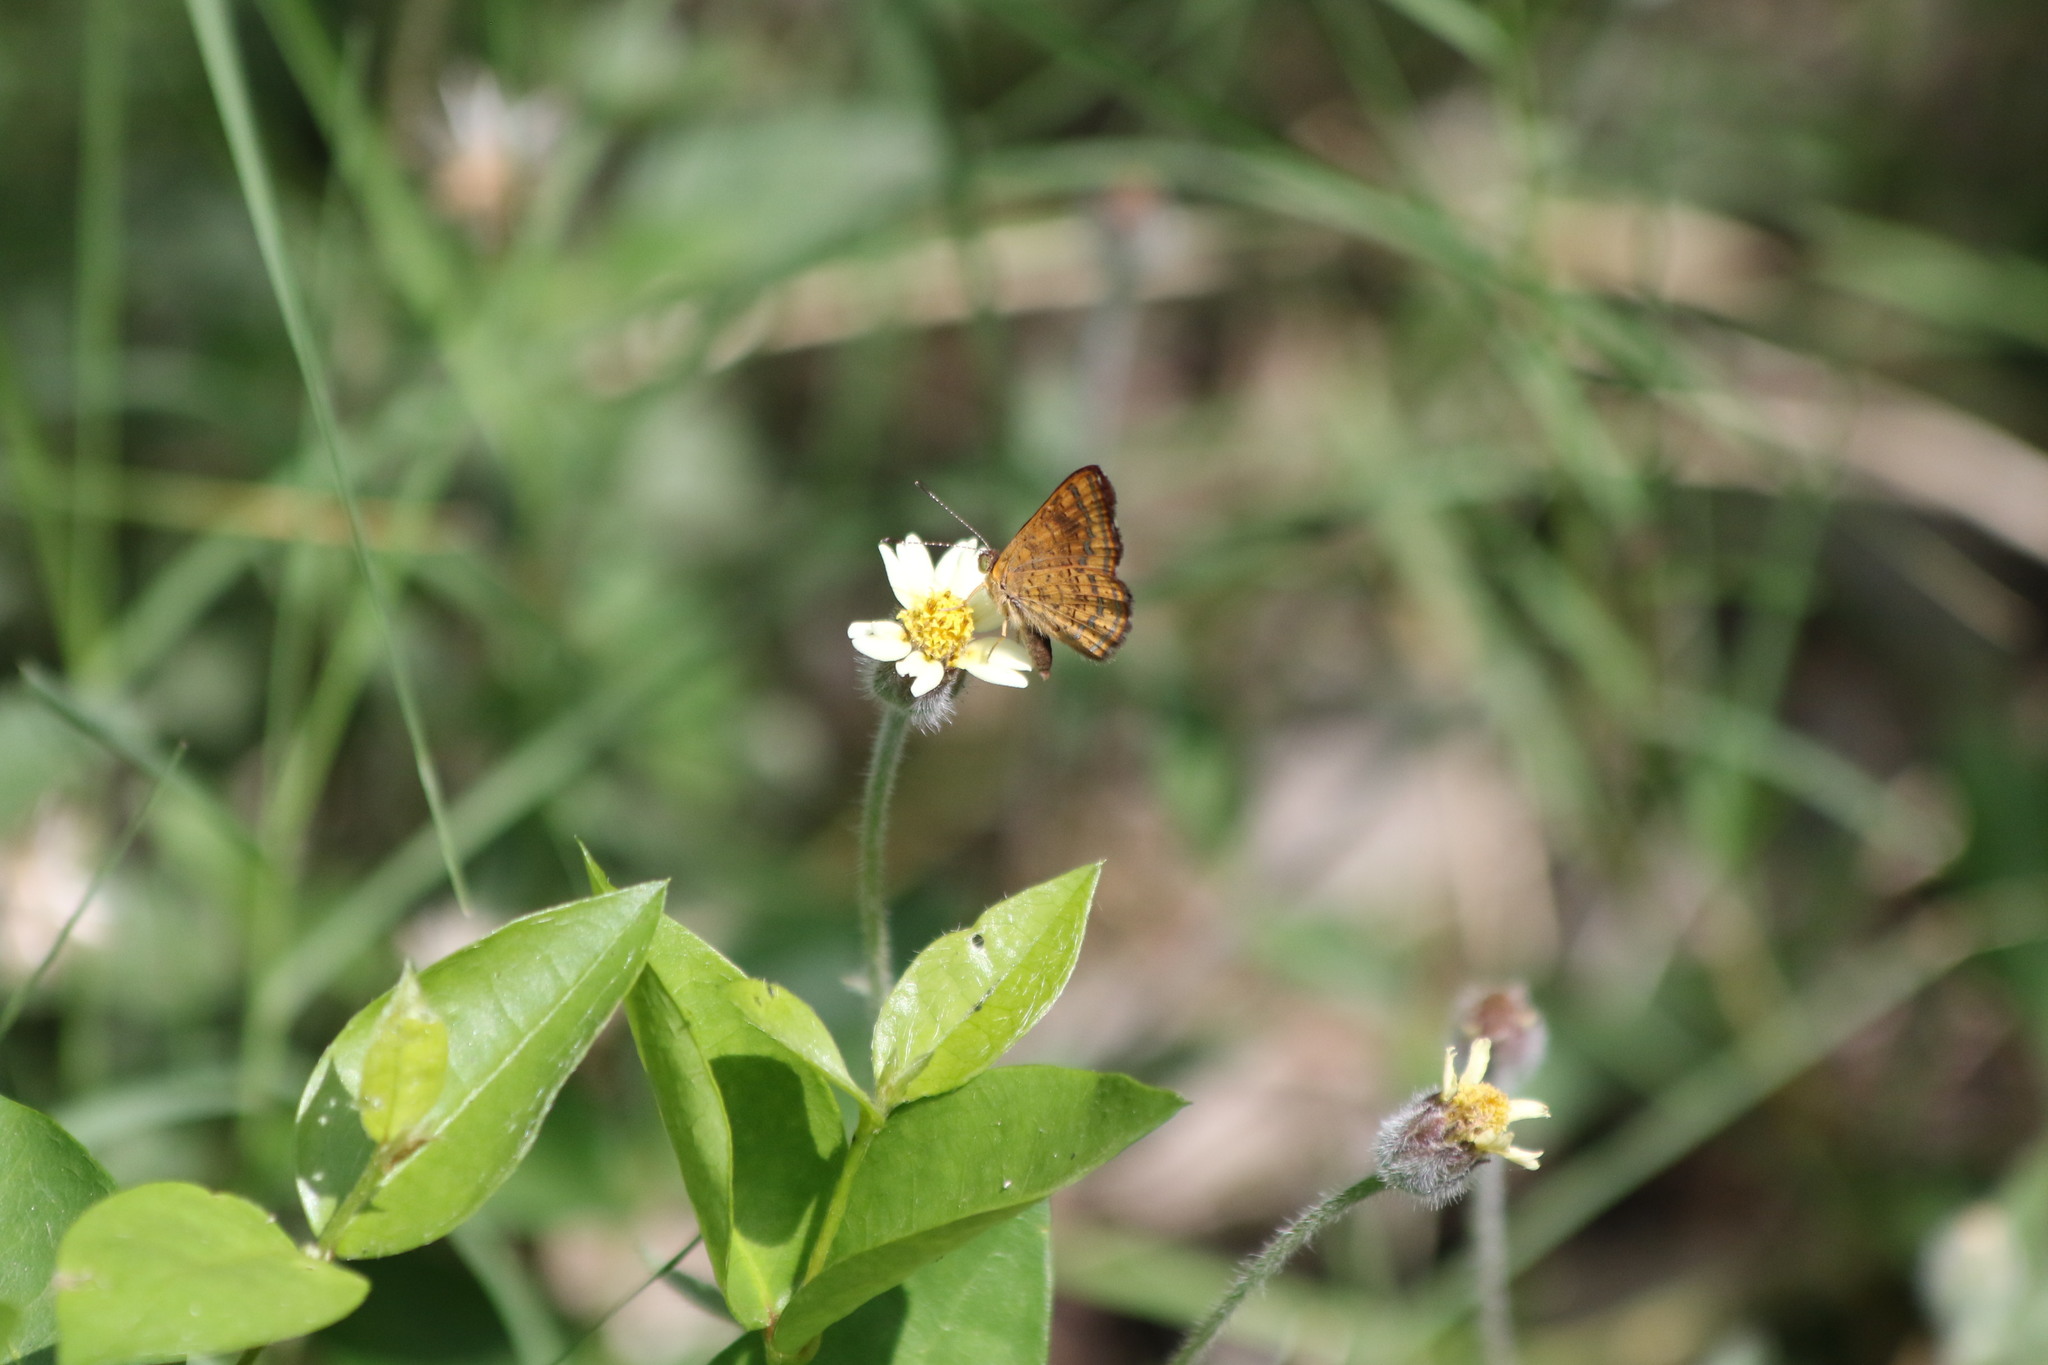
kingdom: Animalia
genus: Calephelis
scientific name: Calephelis nemesis
